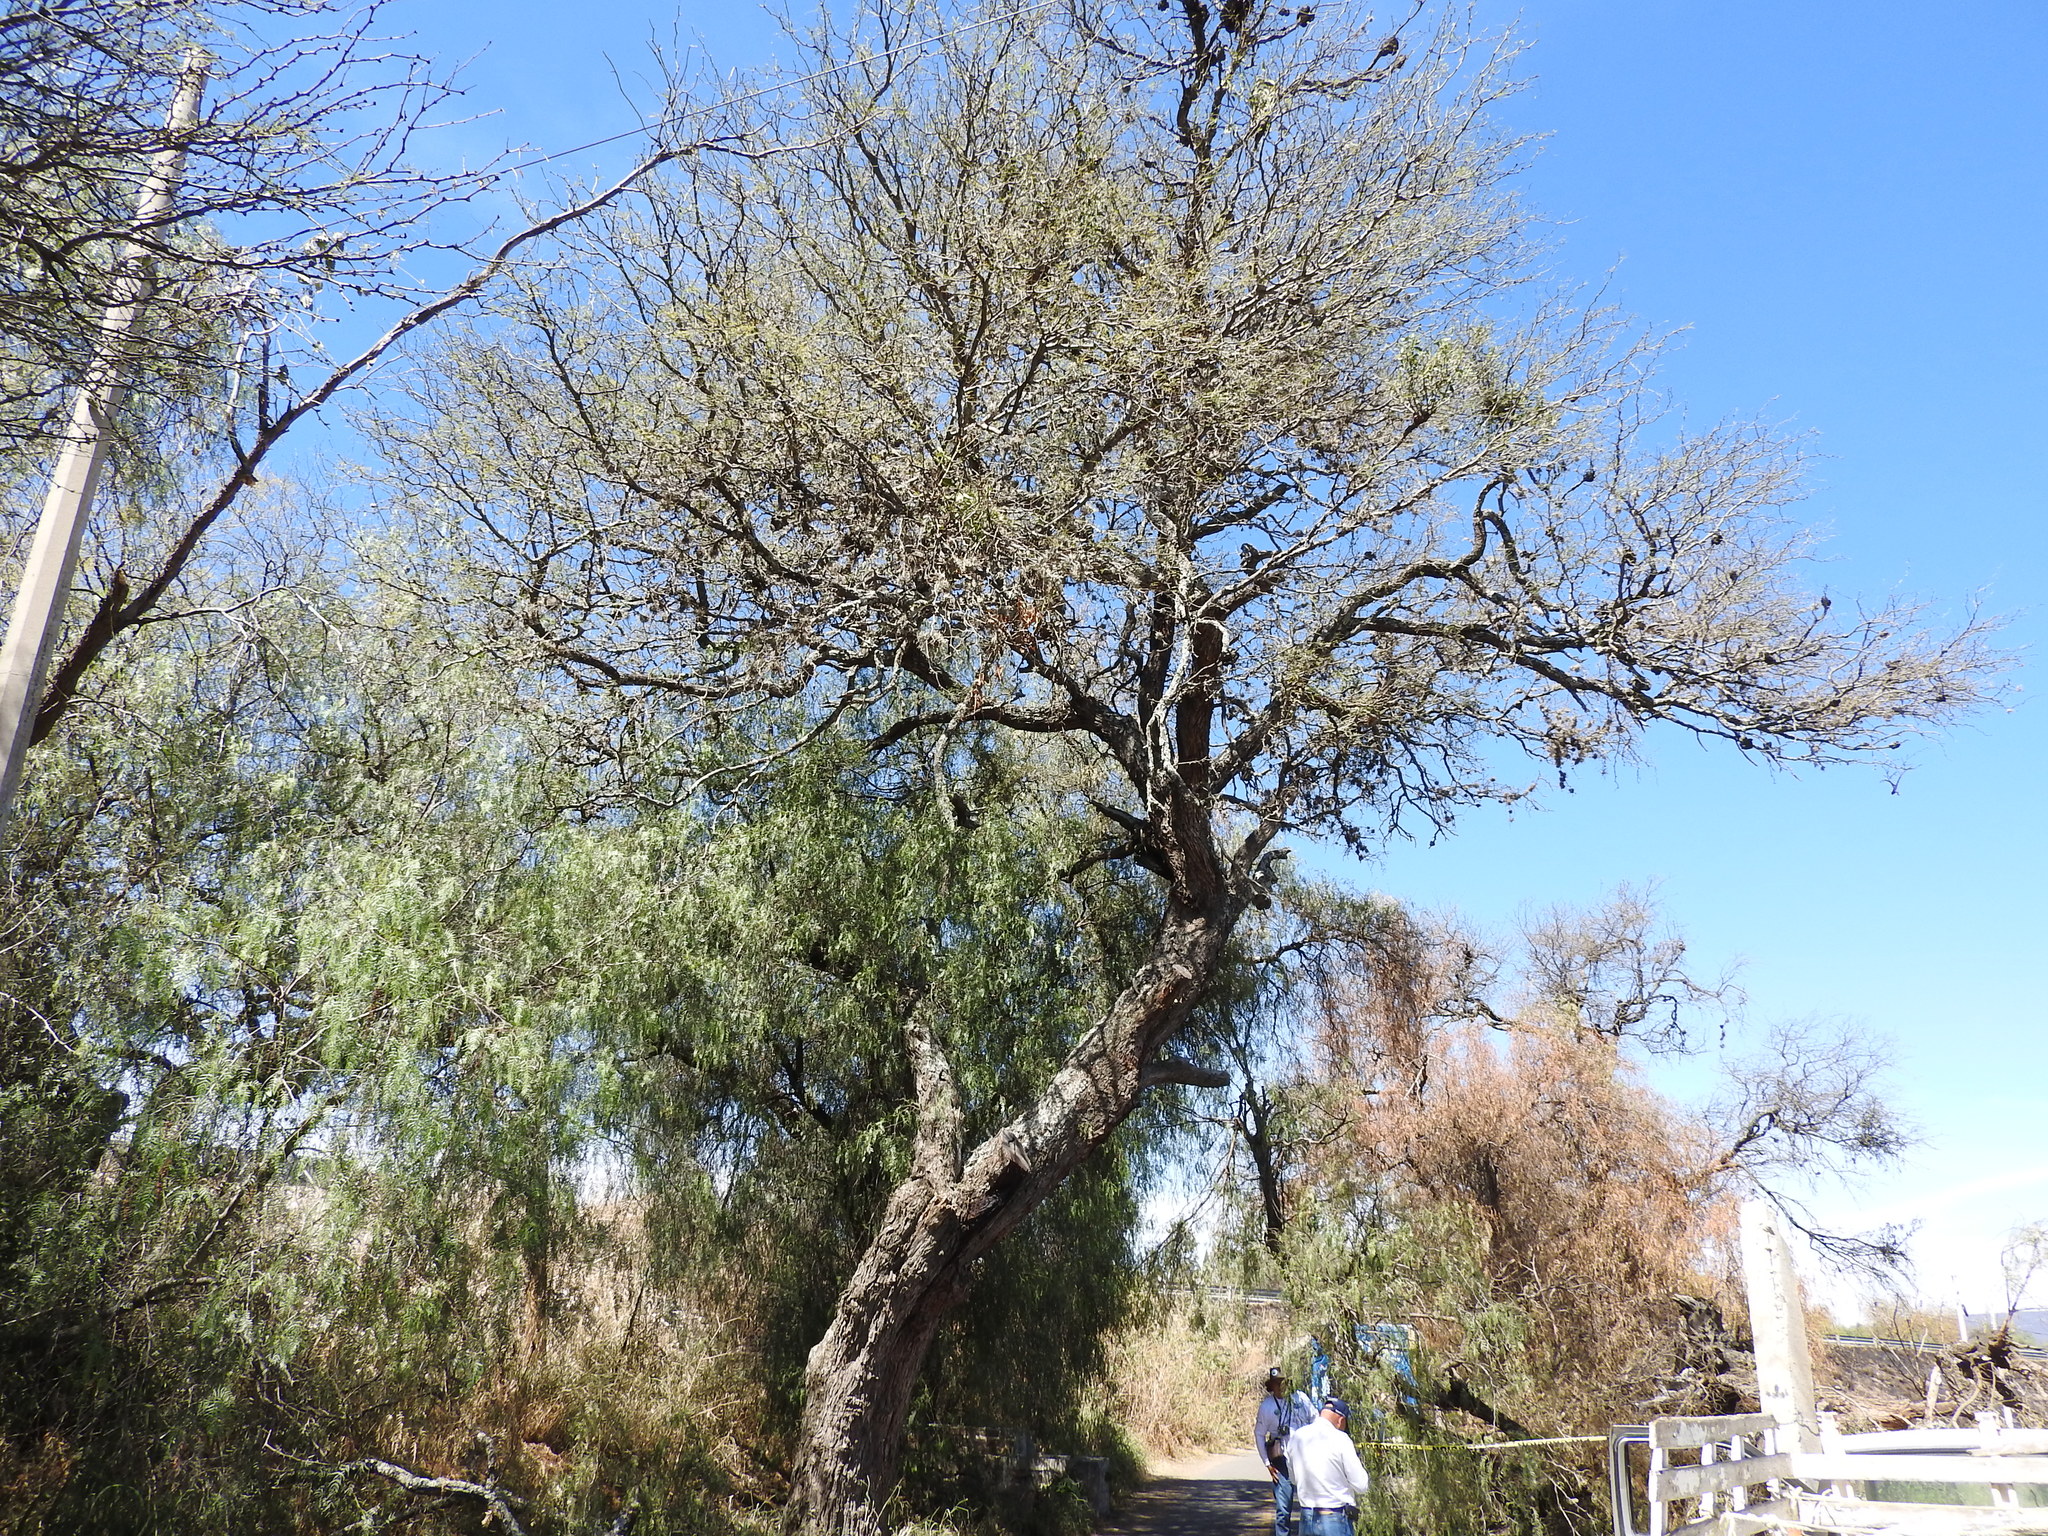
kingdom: Plantae
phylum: Tracheophyta
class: Magnoliopsida
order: Fabales
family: Fabaceae
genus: Prosopis
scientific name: Prosopis laevigata
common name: Smooth mesquite
